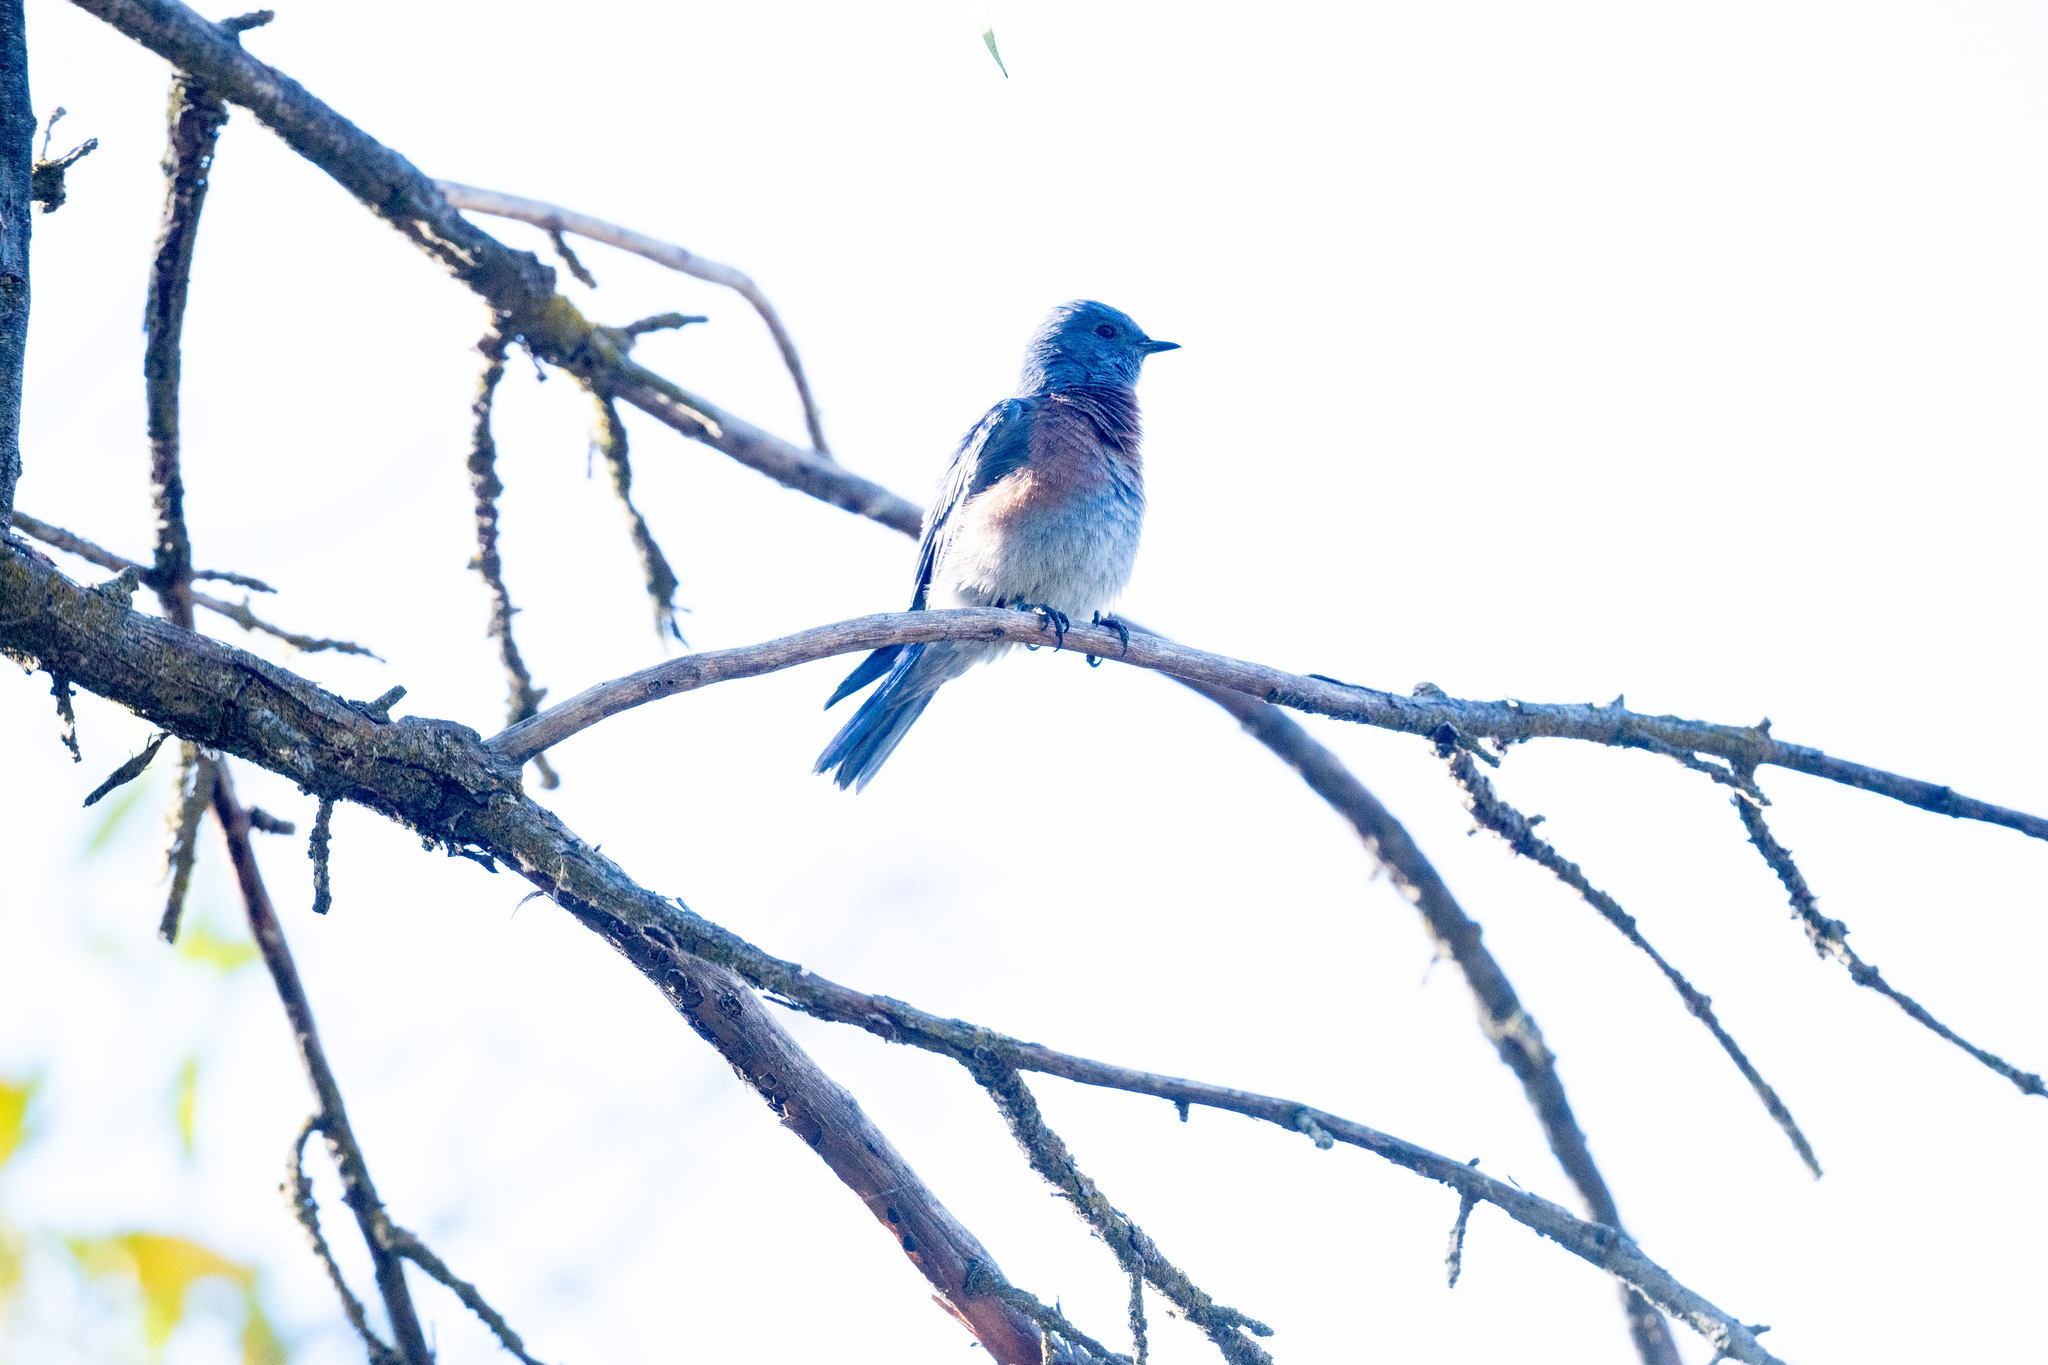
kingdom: Animalia
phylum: Chordata
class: Aves
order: Passeriformes
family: Turdidae
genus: Sialia
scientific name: Sialia mexicana
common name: Western bluebird
